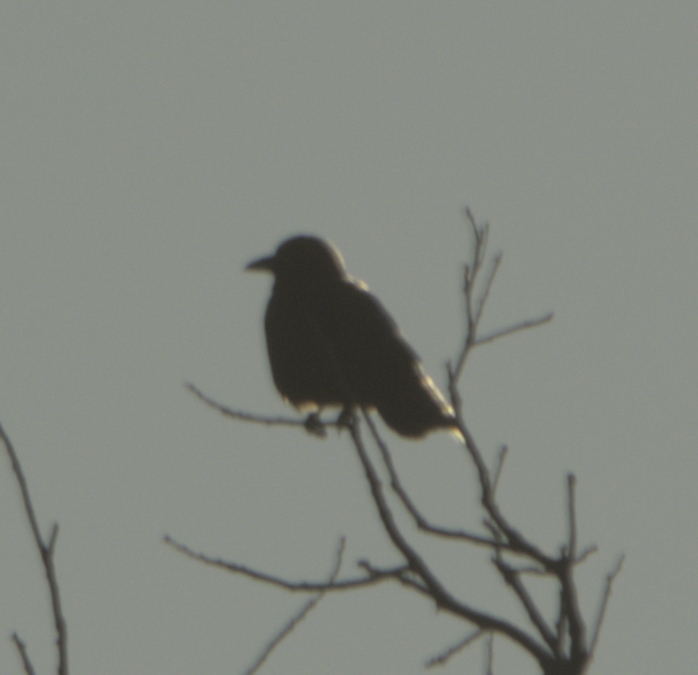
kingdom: Animalia
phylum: Chordata
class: Aves
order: Passeriformes
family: Corvidae
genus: Corvus
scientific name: Corvus brachyrhynchos
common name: American crow
